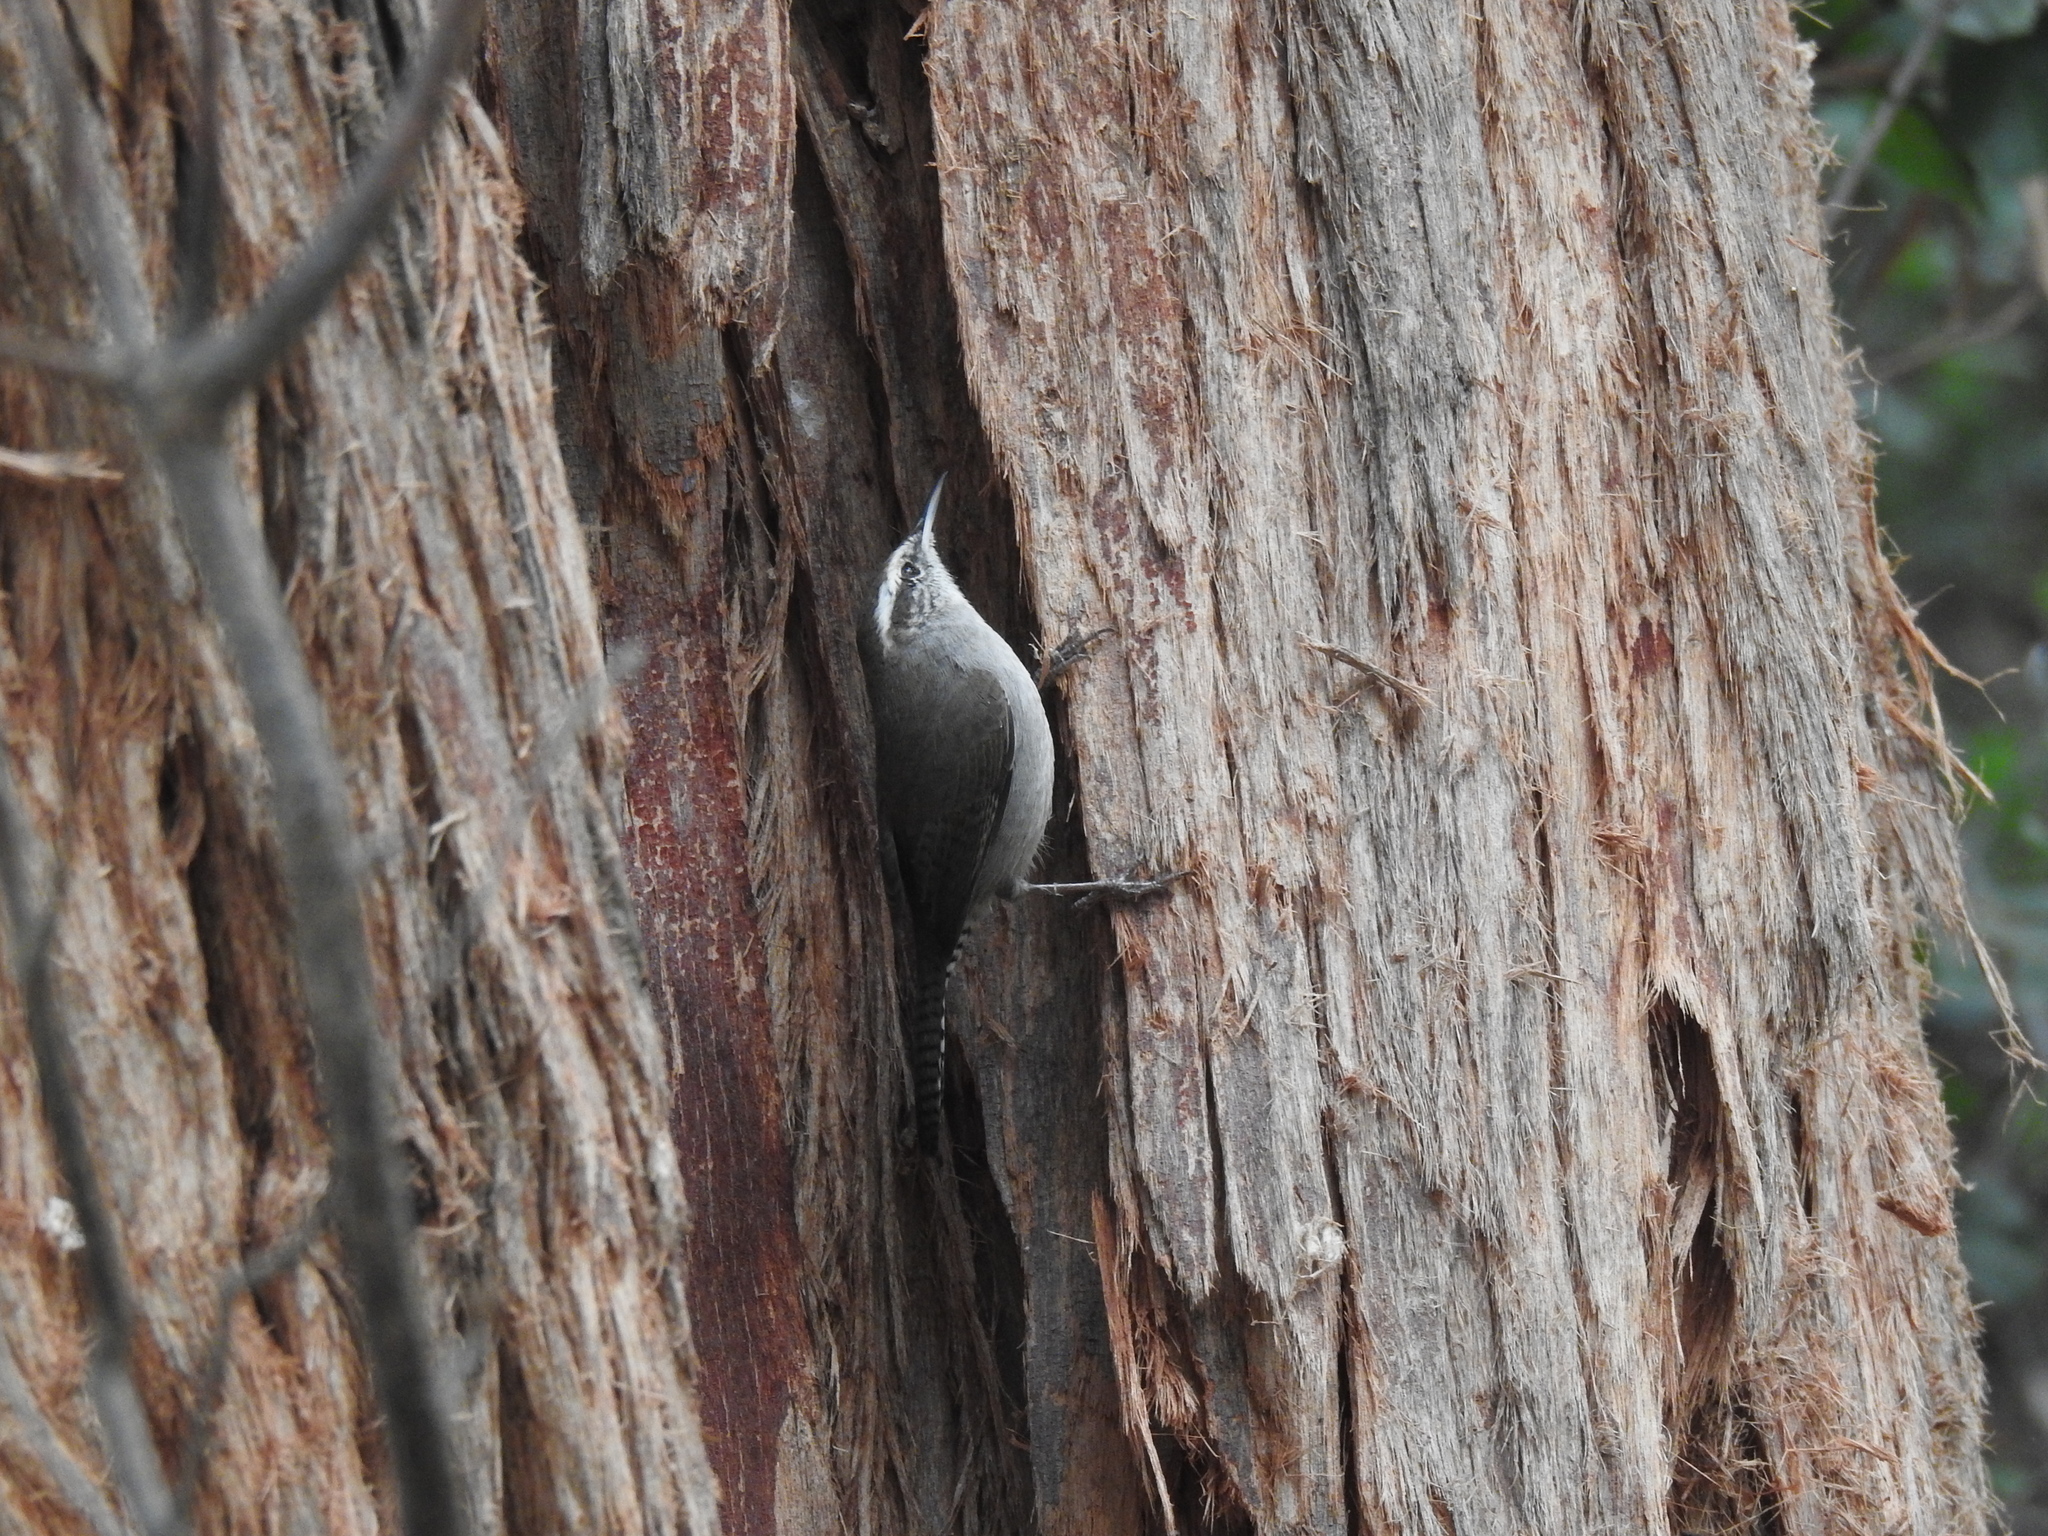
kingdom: Animalia
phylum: Chordata
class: Aves
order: Passeriformes
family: Troglodytidae
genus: Thryomanes
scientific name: Thryomanes bewickii
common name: Bewick's wren
